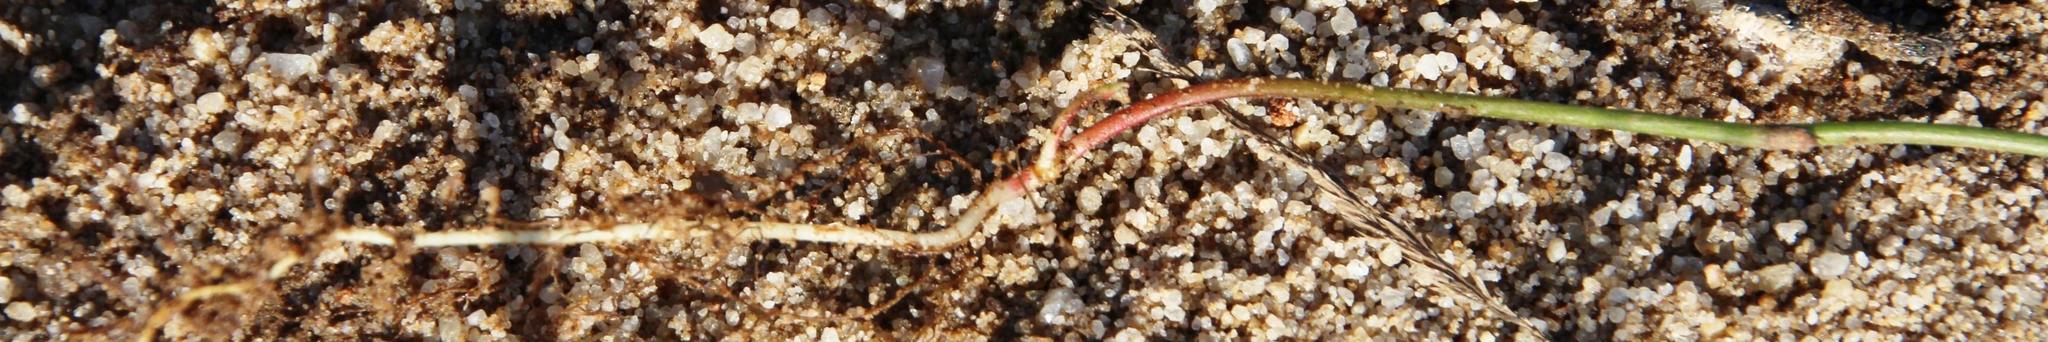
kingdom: Plantae
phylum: Tracheophyta
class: Magnoliopsida
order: Oxalidales
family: Oxalidaceae
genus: Oxalis
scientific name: Oxalis recticaulis
